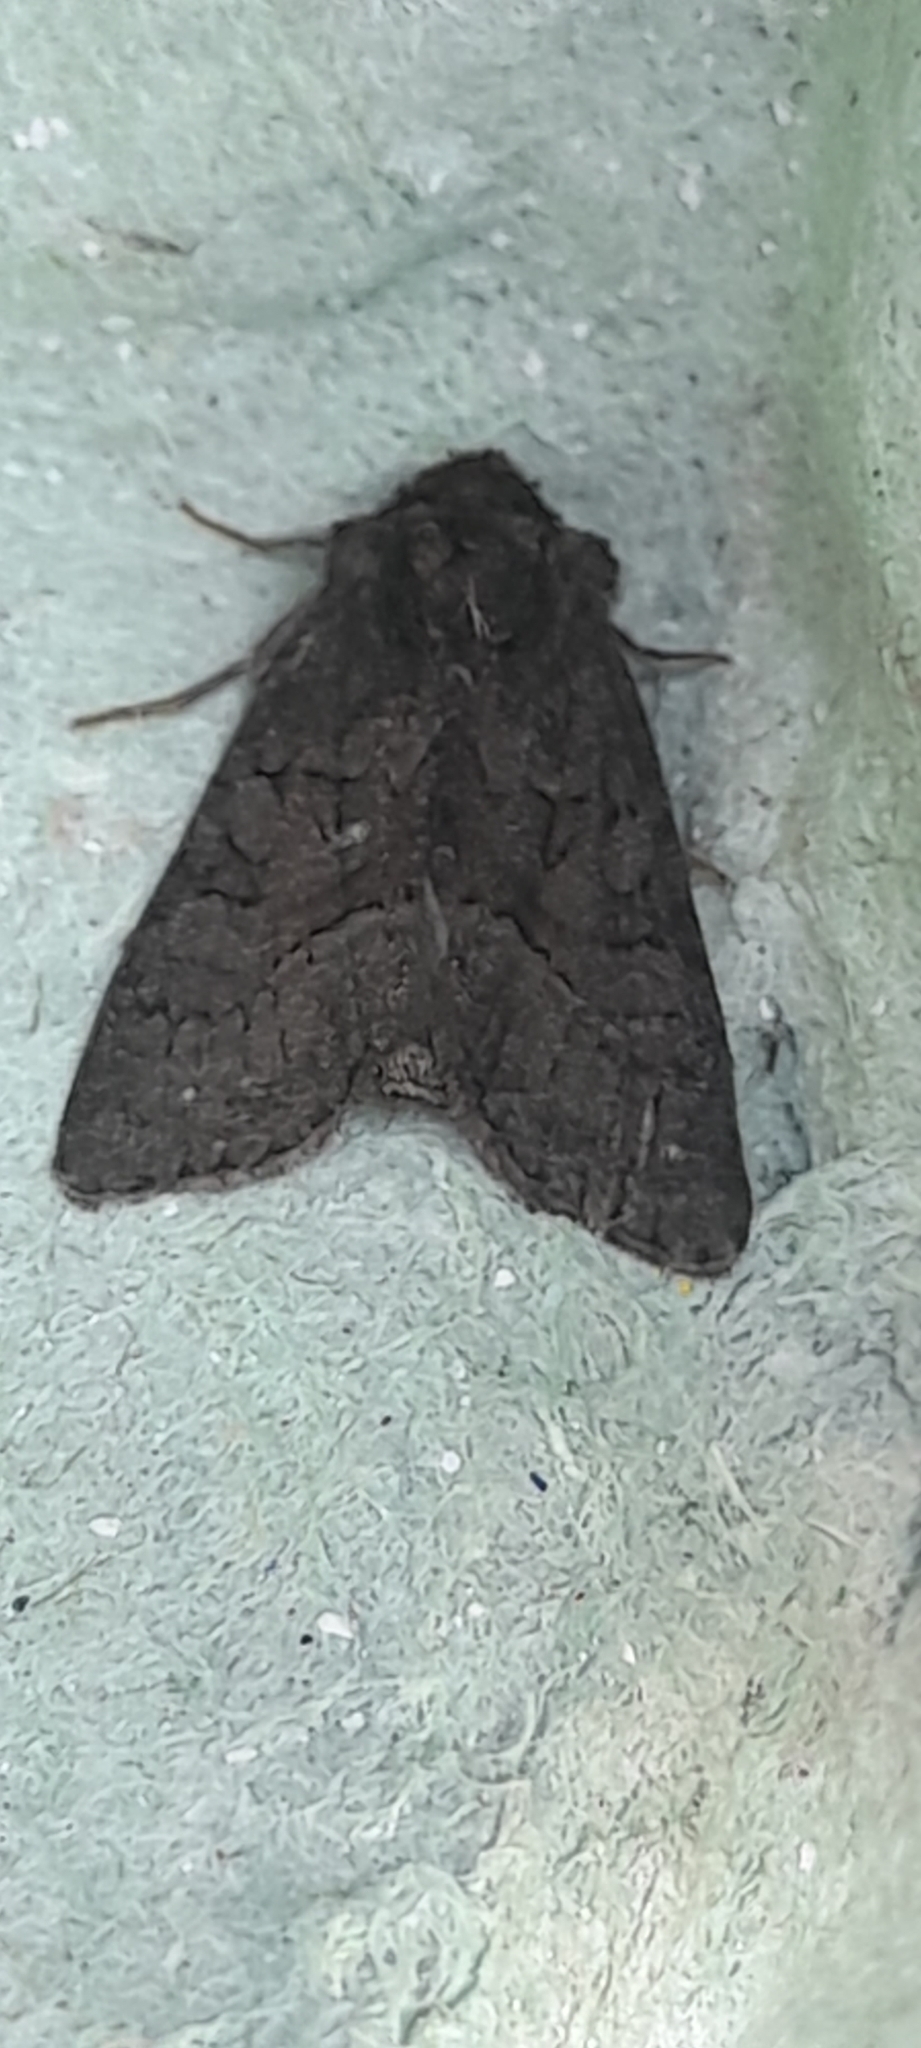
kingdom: Animalia
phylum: Arthropoda
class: Insecta
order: Lepidoptera
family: Noctuidae
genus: Oligia
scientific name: Oligia latruncula
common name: Tawny marbled minor
